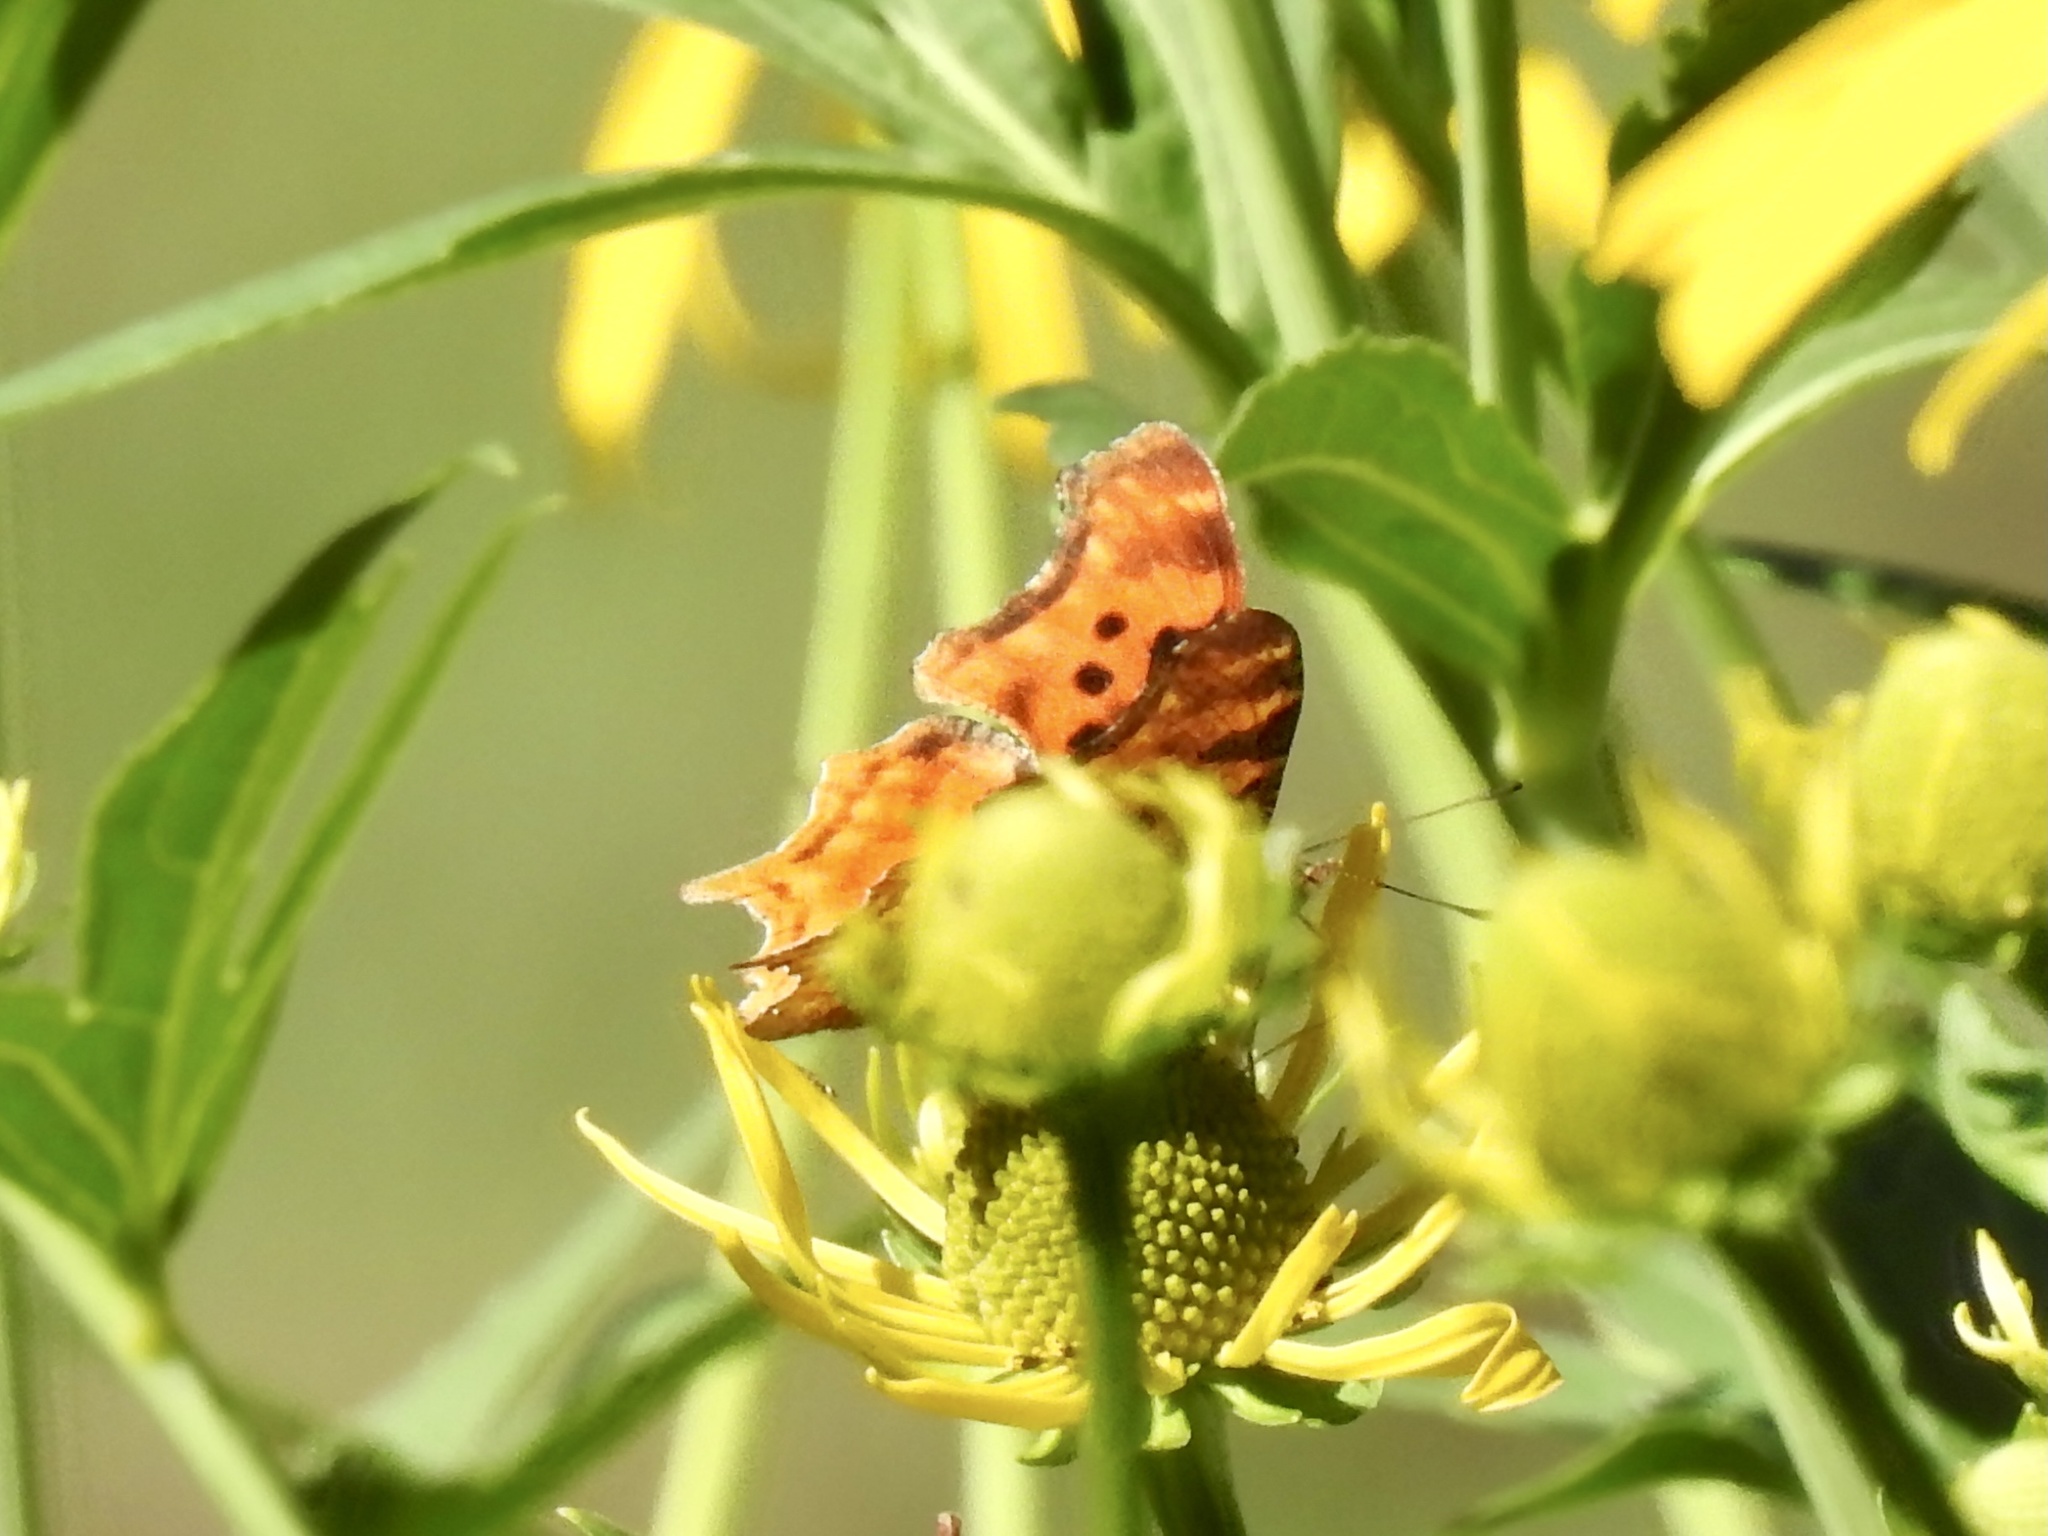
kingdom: Animalia
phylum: Arthropoda
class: Insecta
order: Lepidoptera
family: Nymphalidae
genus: Polygonia
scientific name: Polygonia satyrus
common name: Satyr angle wing
